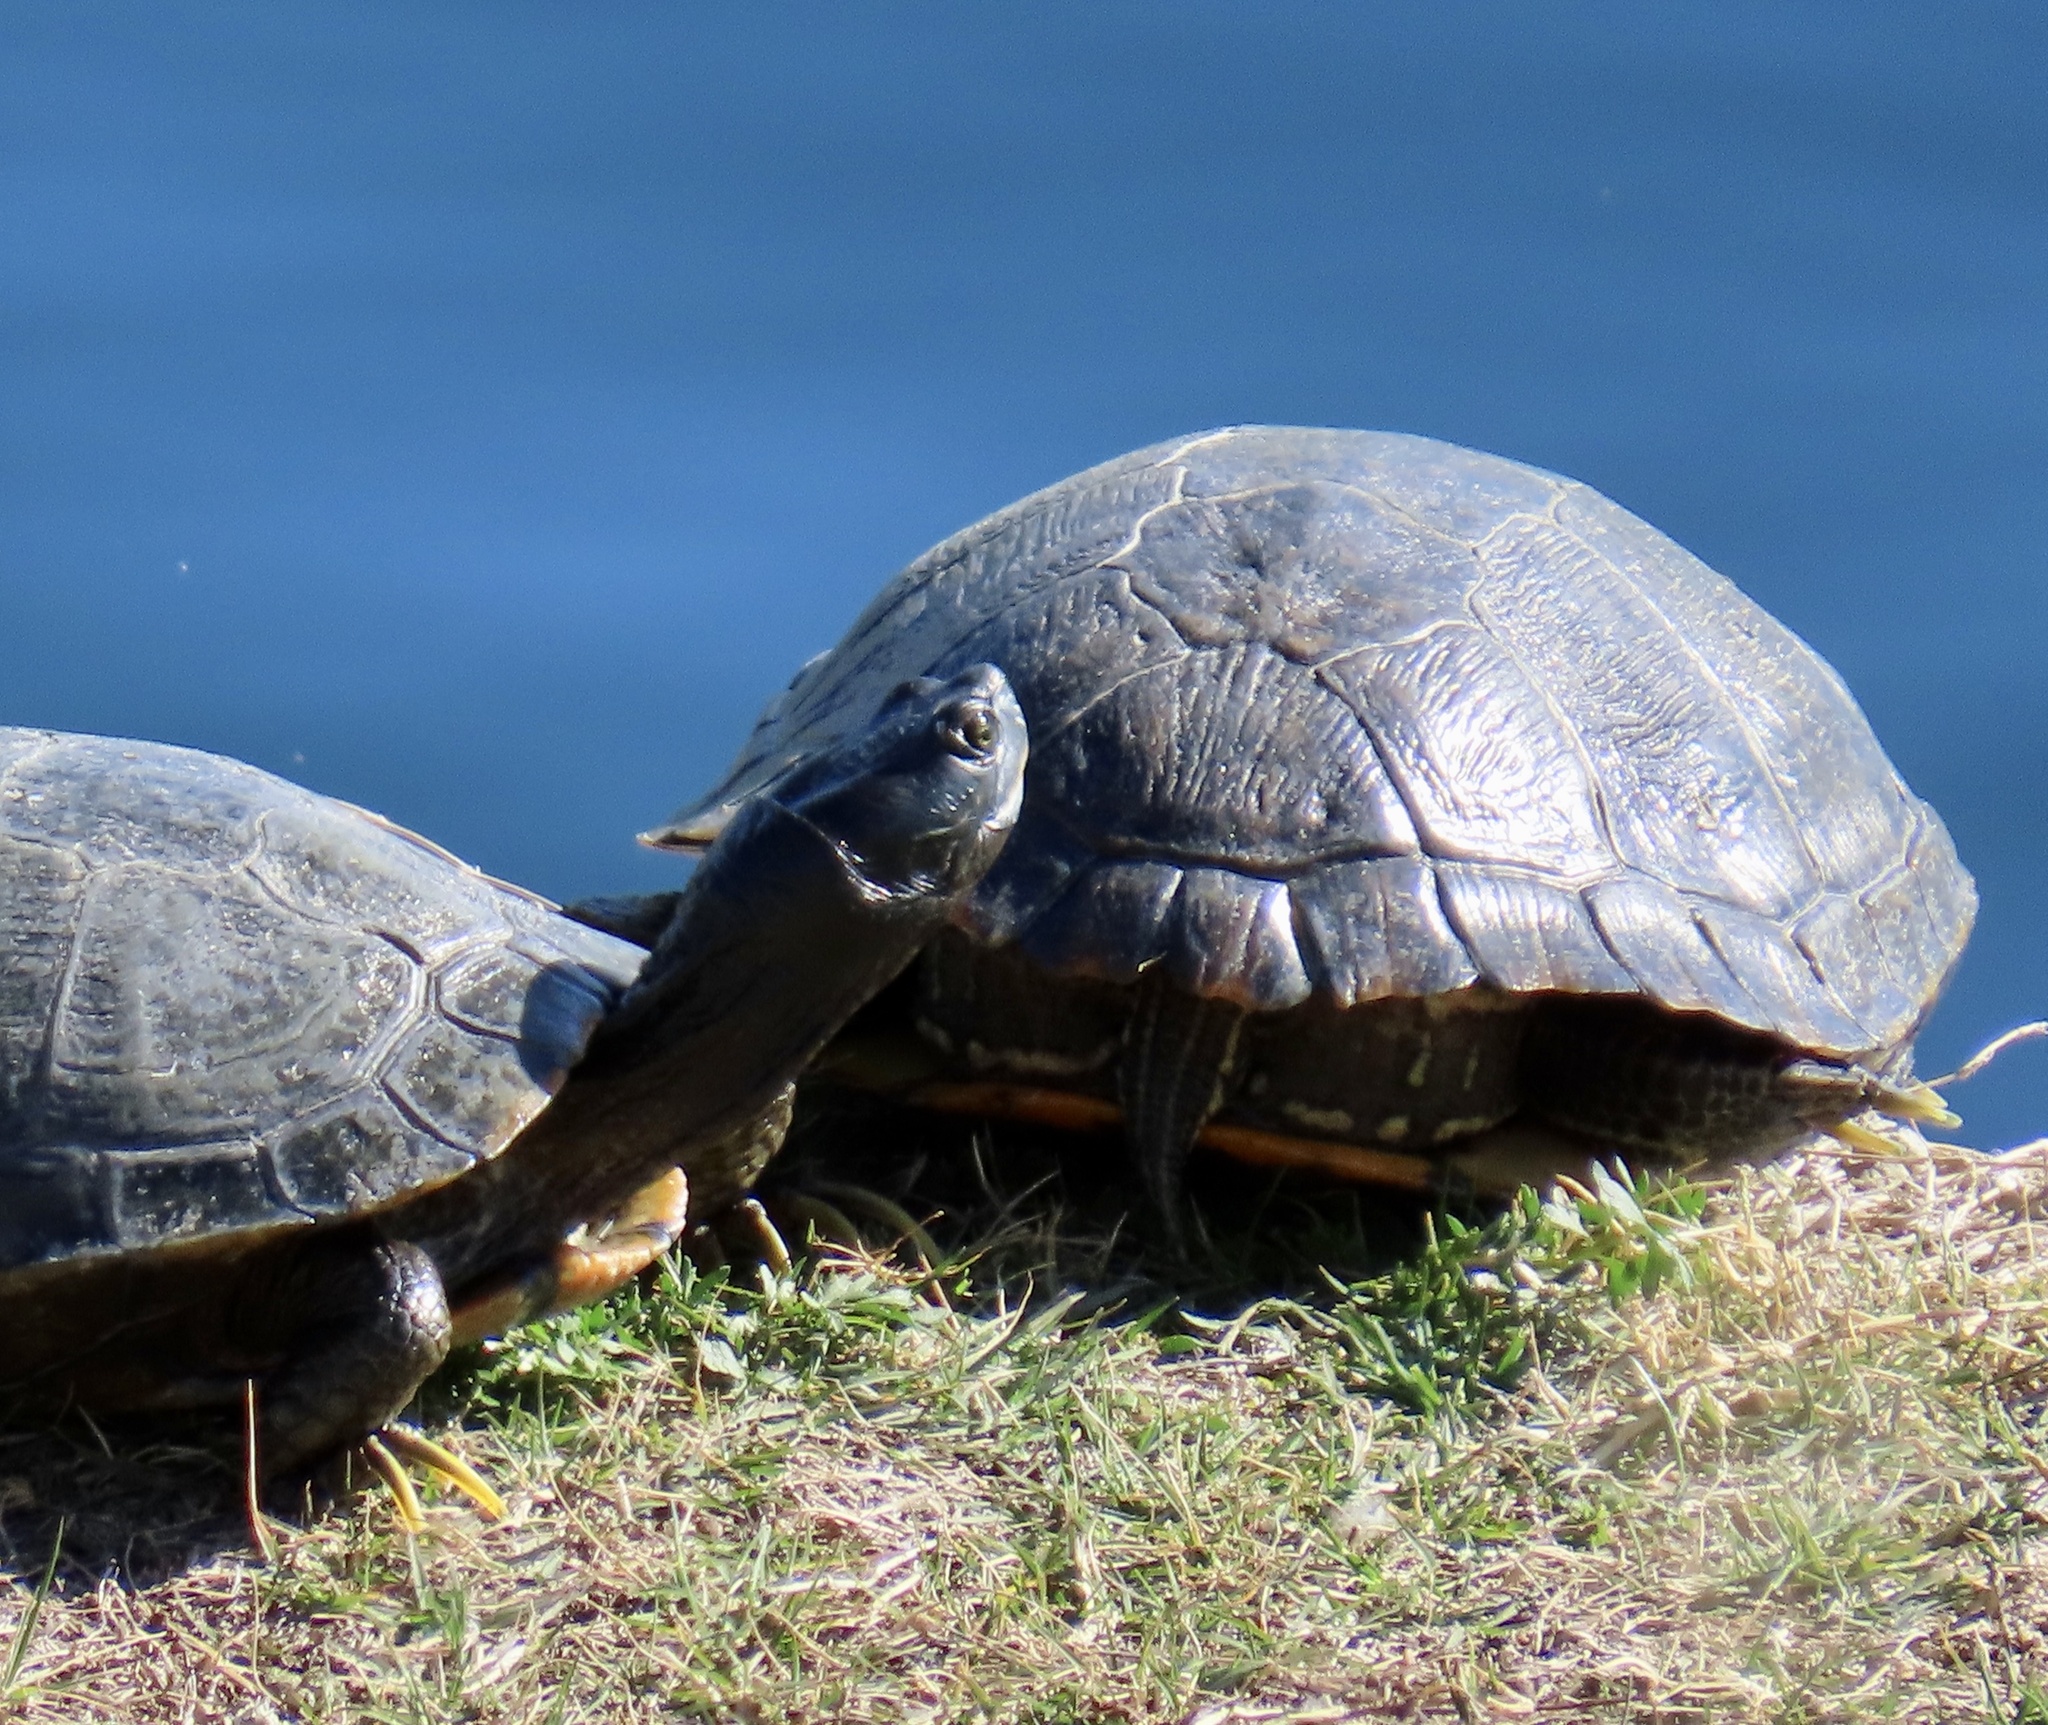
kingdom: Animalia
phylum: Chordata
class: Testudines
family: Emydidae
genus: Trachemys
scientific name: Trachemys scripta
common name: Slider
